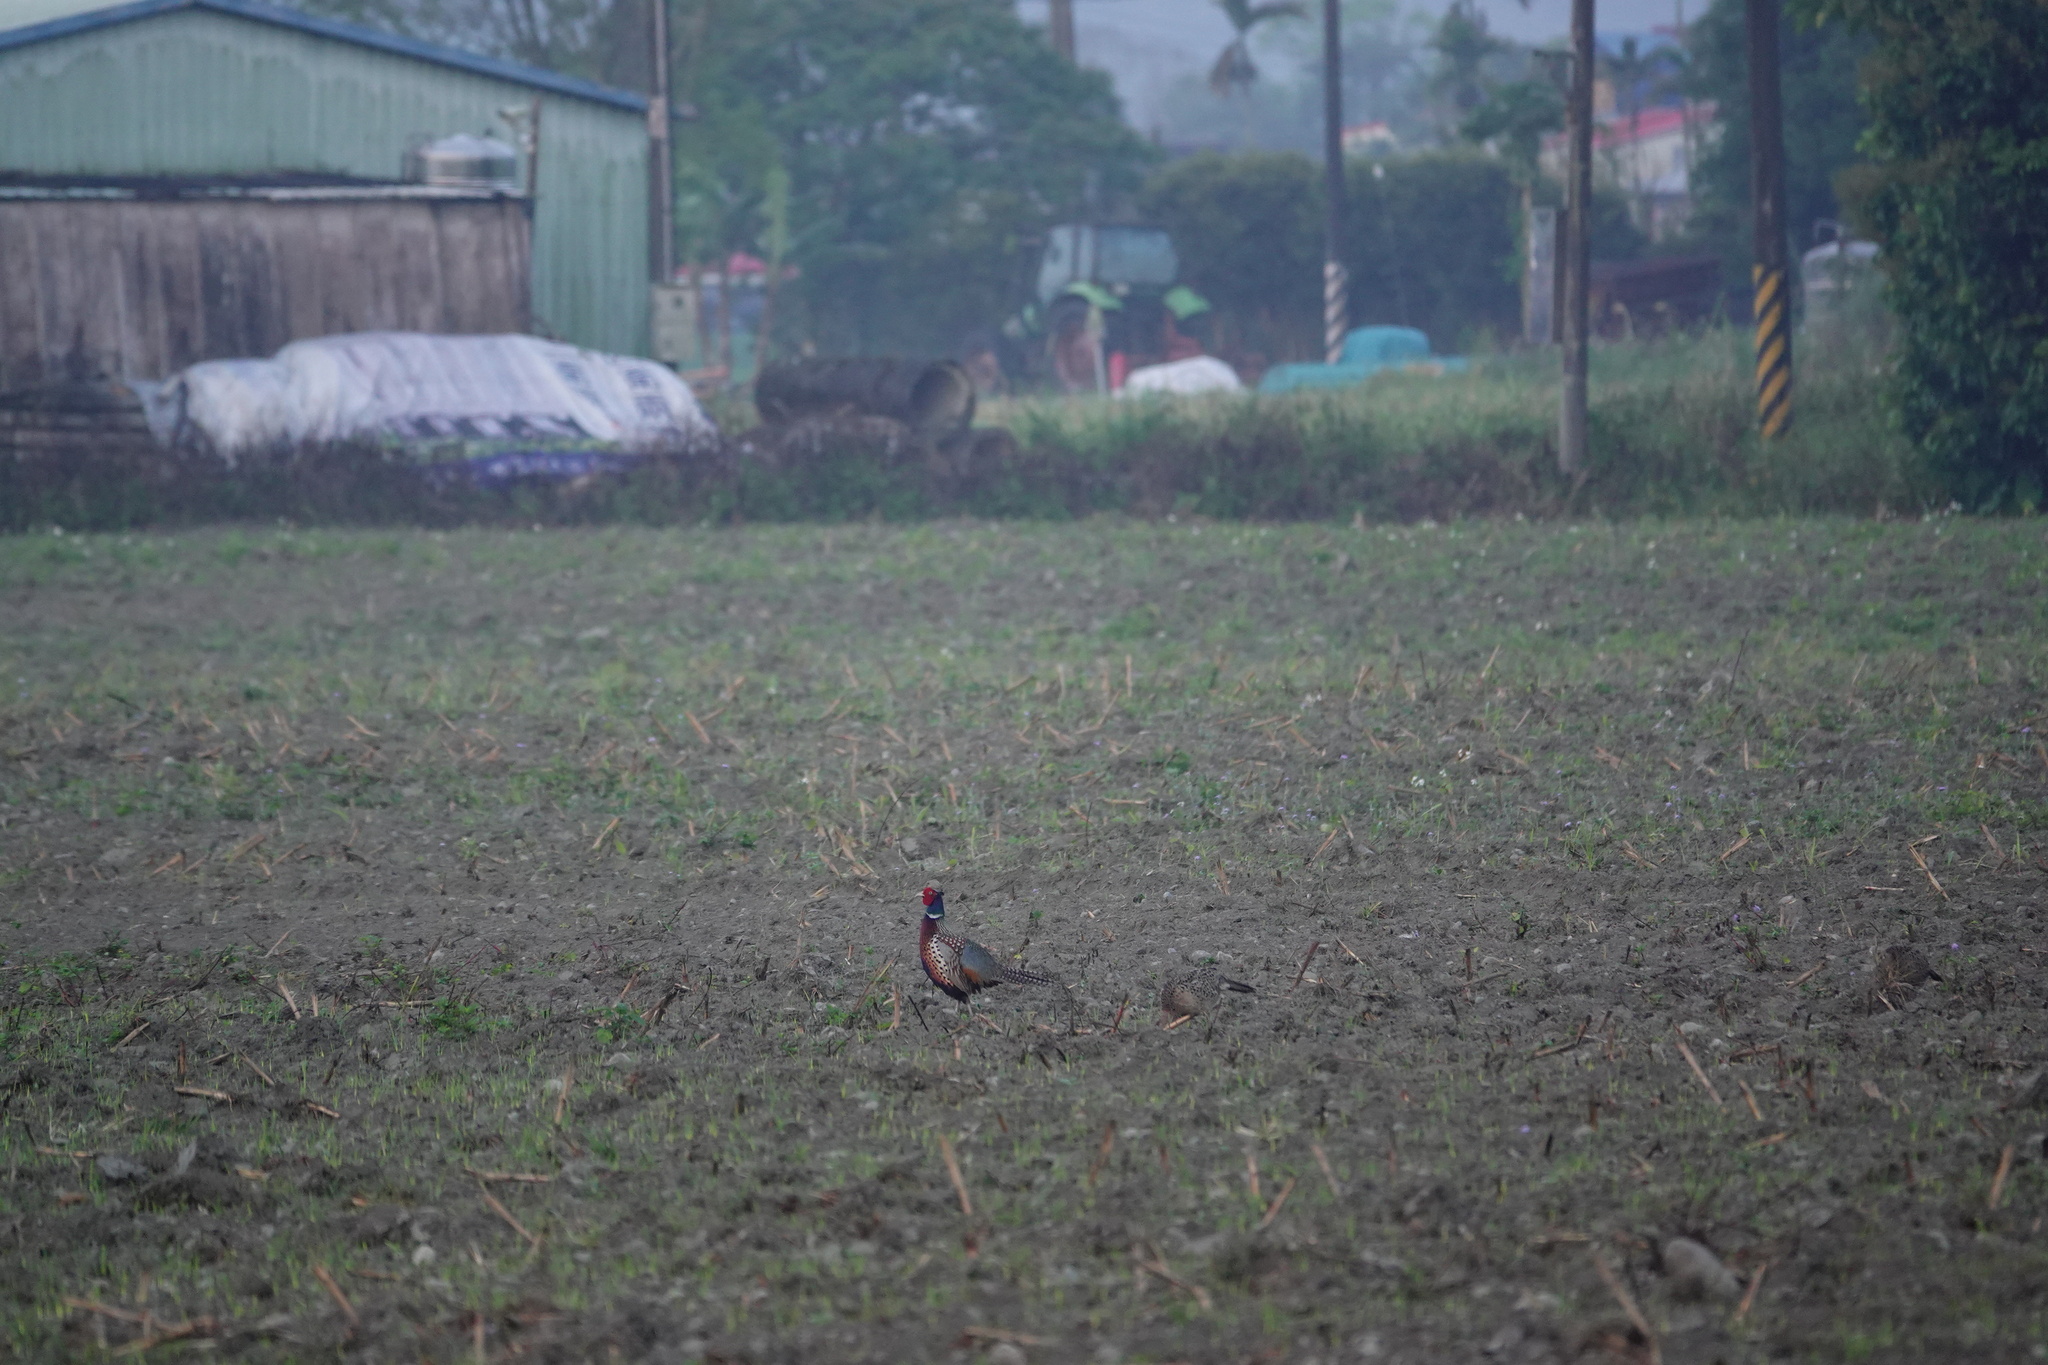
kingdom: Animalia
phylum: Chordata
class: Aves
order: Galliformes
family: Phasianidae
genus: Phasianus
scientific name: Phasianus colchicus
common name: Common pheasant
